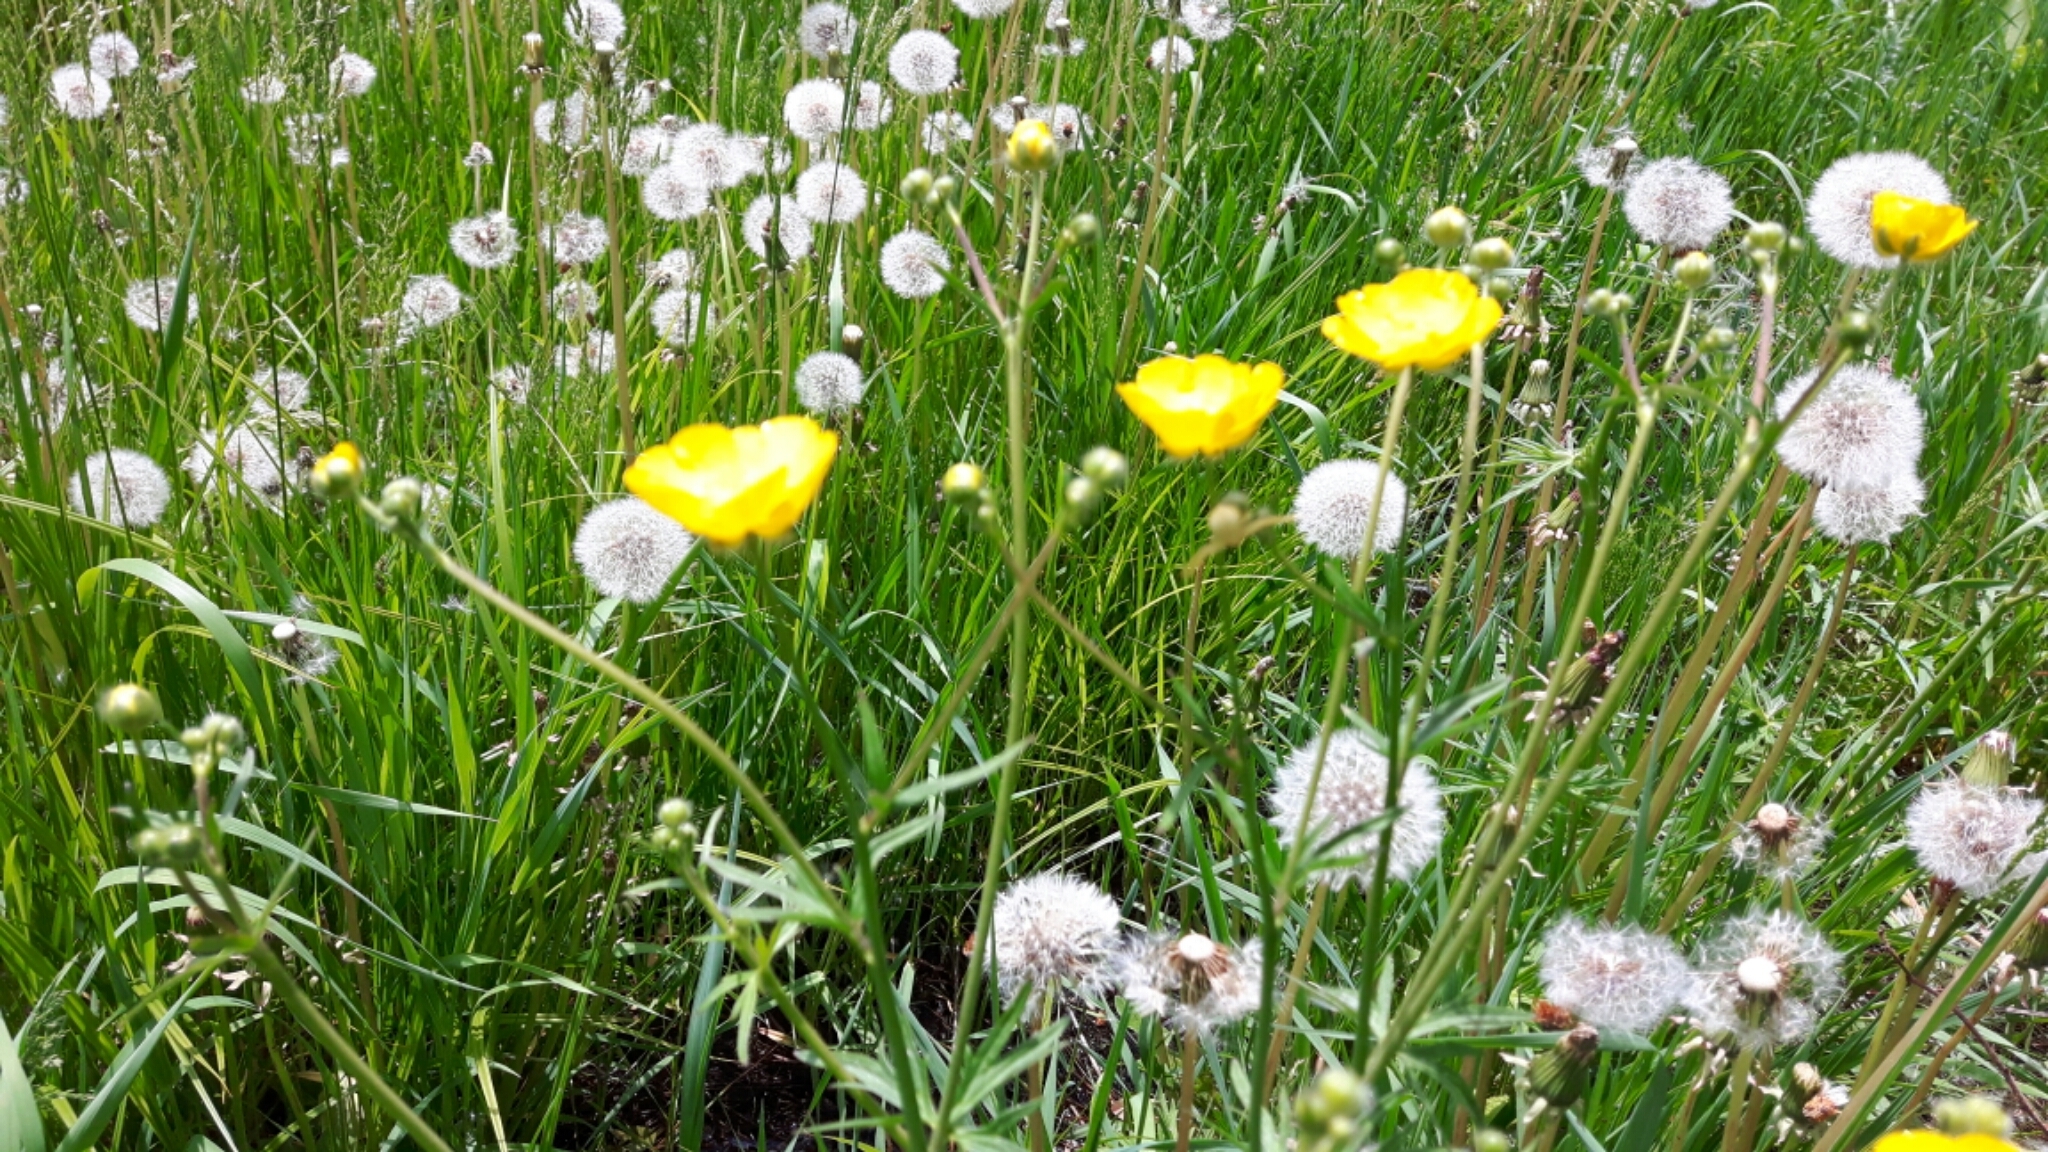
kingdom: Plantae
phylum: Tracheophyta
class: Magnoliopsida
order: Ranunculales
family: Ranunculaceae
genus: Ranunculus
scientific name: Ranunculus acris
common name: Meadow buttercup
